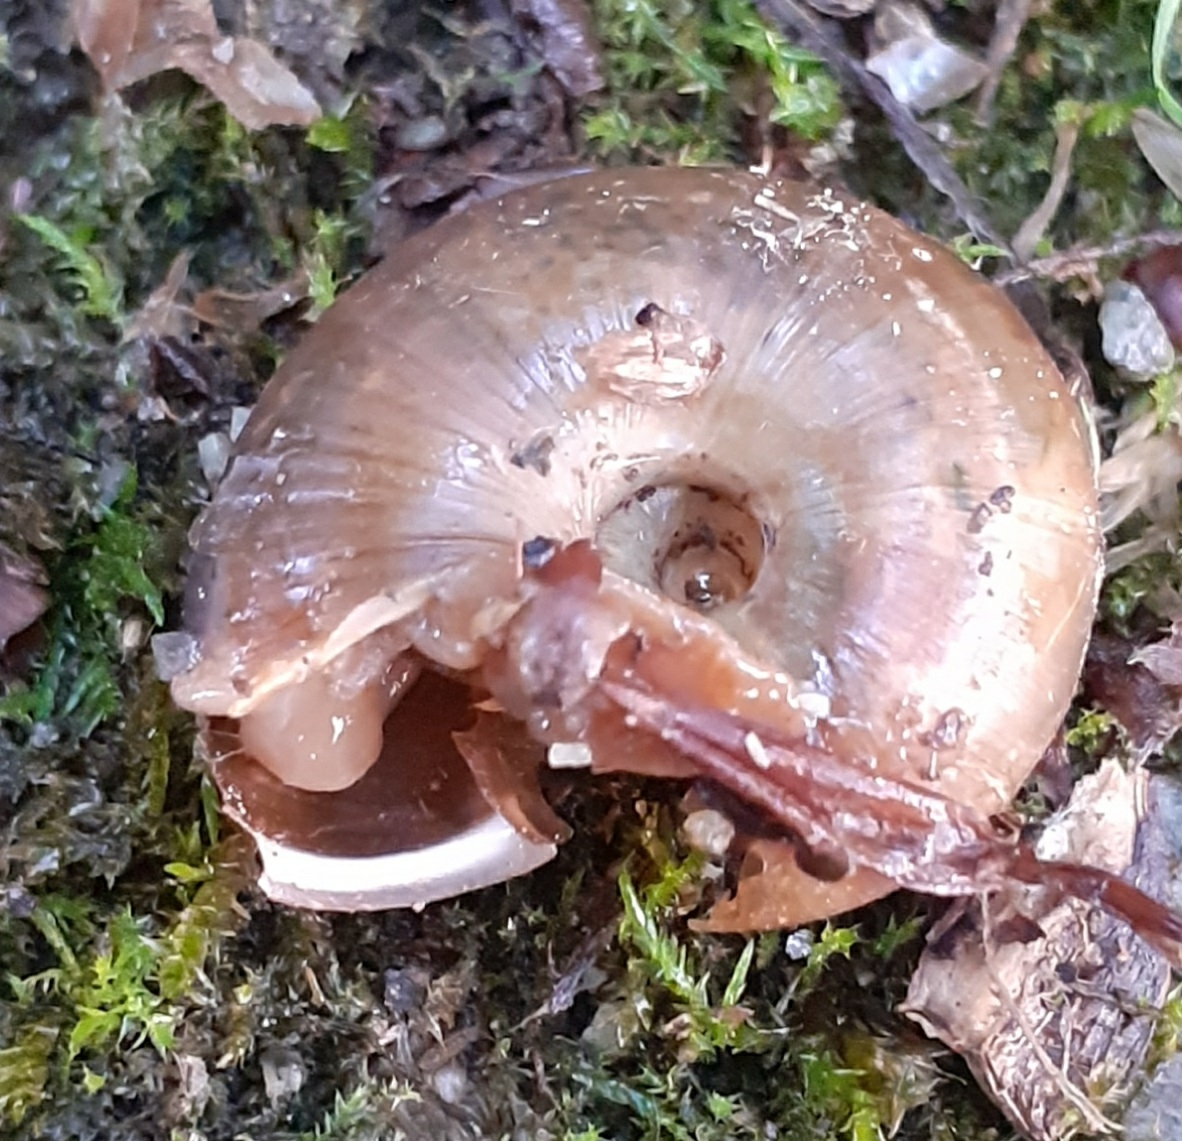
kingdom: Animalia
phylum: Mollusca
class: Gastropoda
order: Stylommatophora
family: Elonidae
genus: Elona
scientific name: Elona quimperiana
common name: Quimper snail
